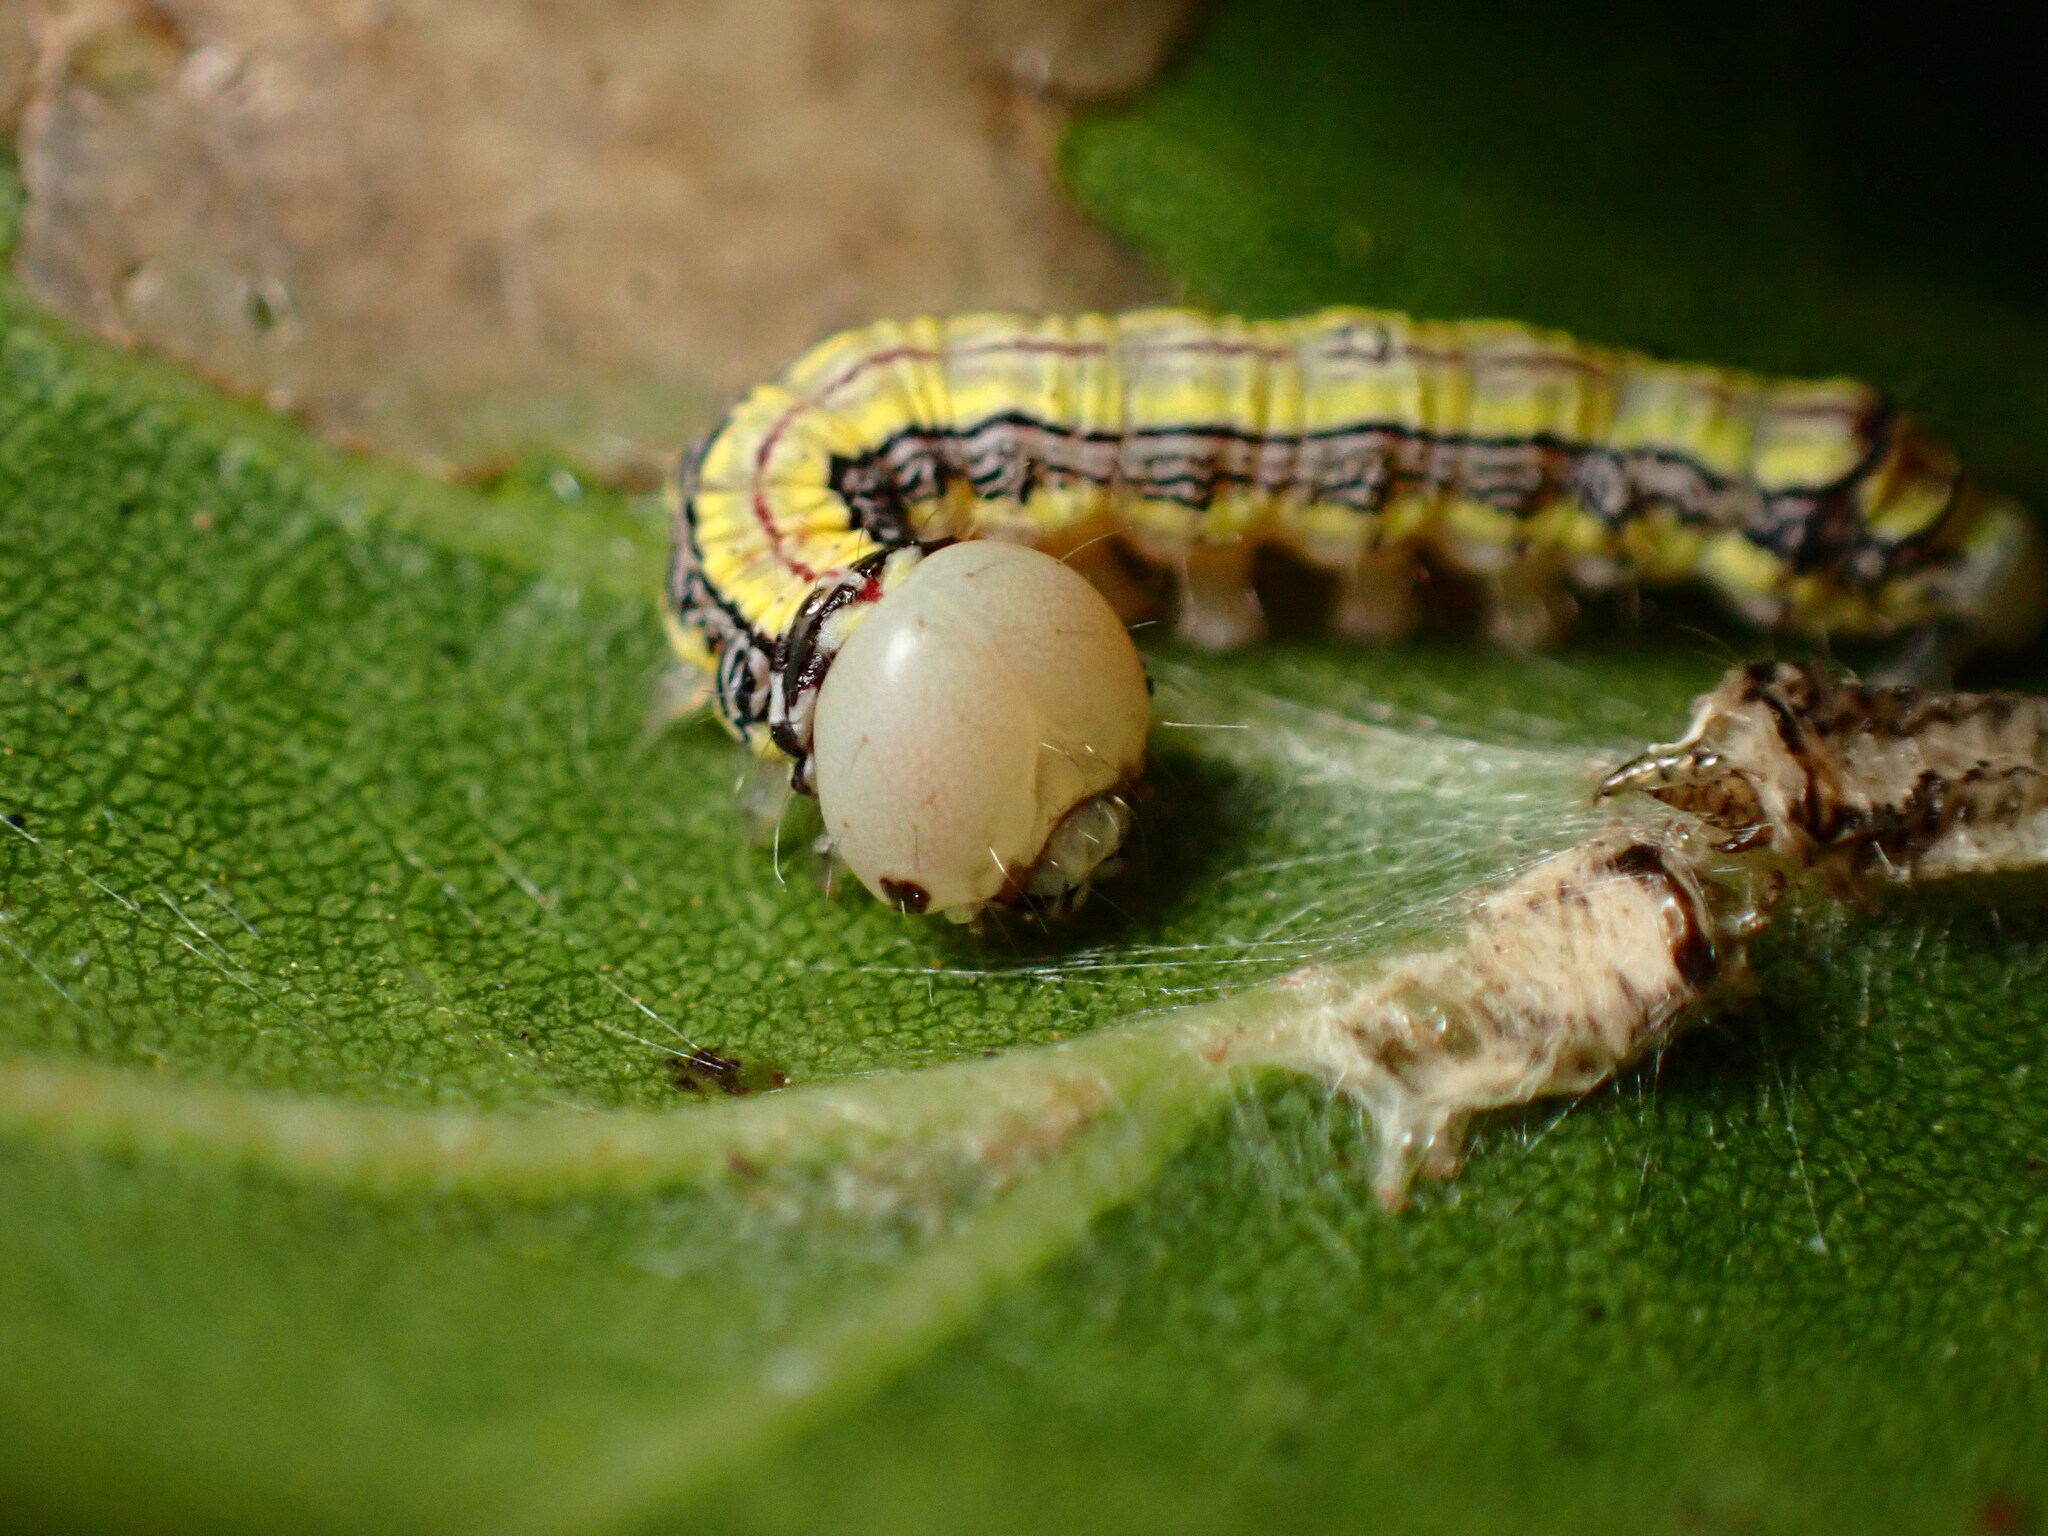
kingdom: Animalia
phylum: Arthropoda
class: Insecta
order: Lepidoptera
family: Notodontidae
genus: Phryganidia
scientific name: Phryganidia californica
